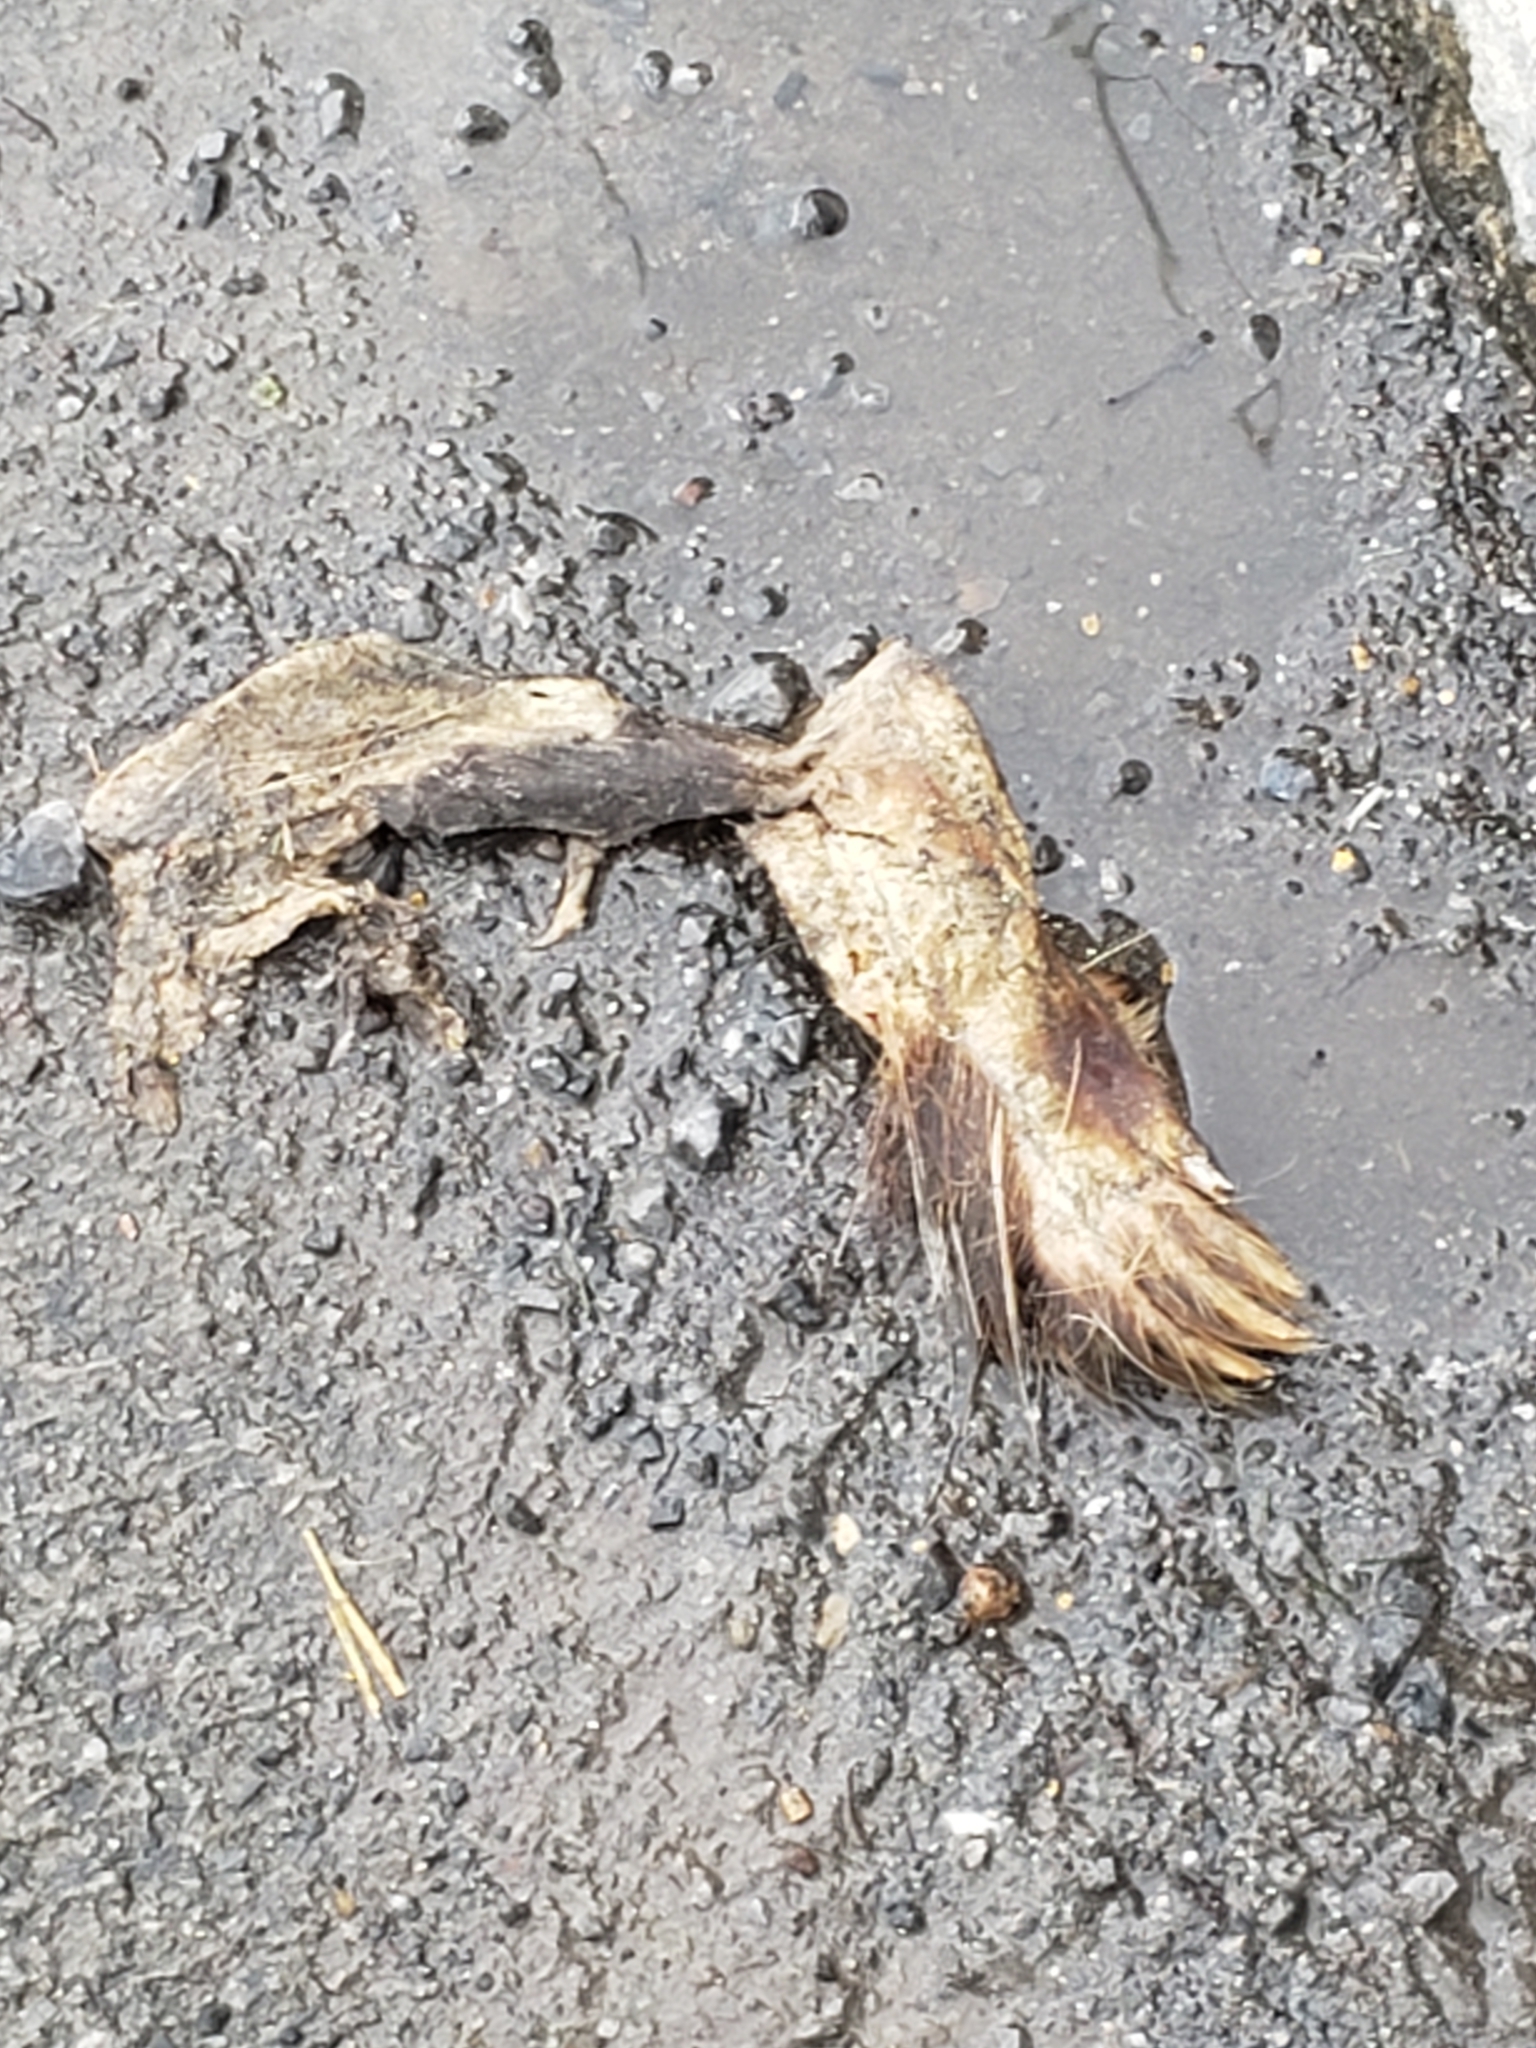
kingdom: Animalia
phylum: Chordata
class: Mammalia
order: Rodentia
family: Erethizontidae
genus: Erethizon
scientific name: Erethizon dorsatus
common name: North american porcupine
